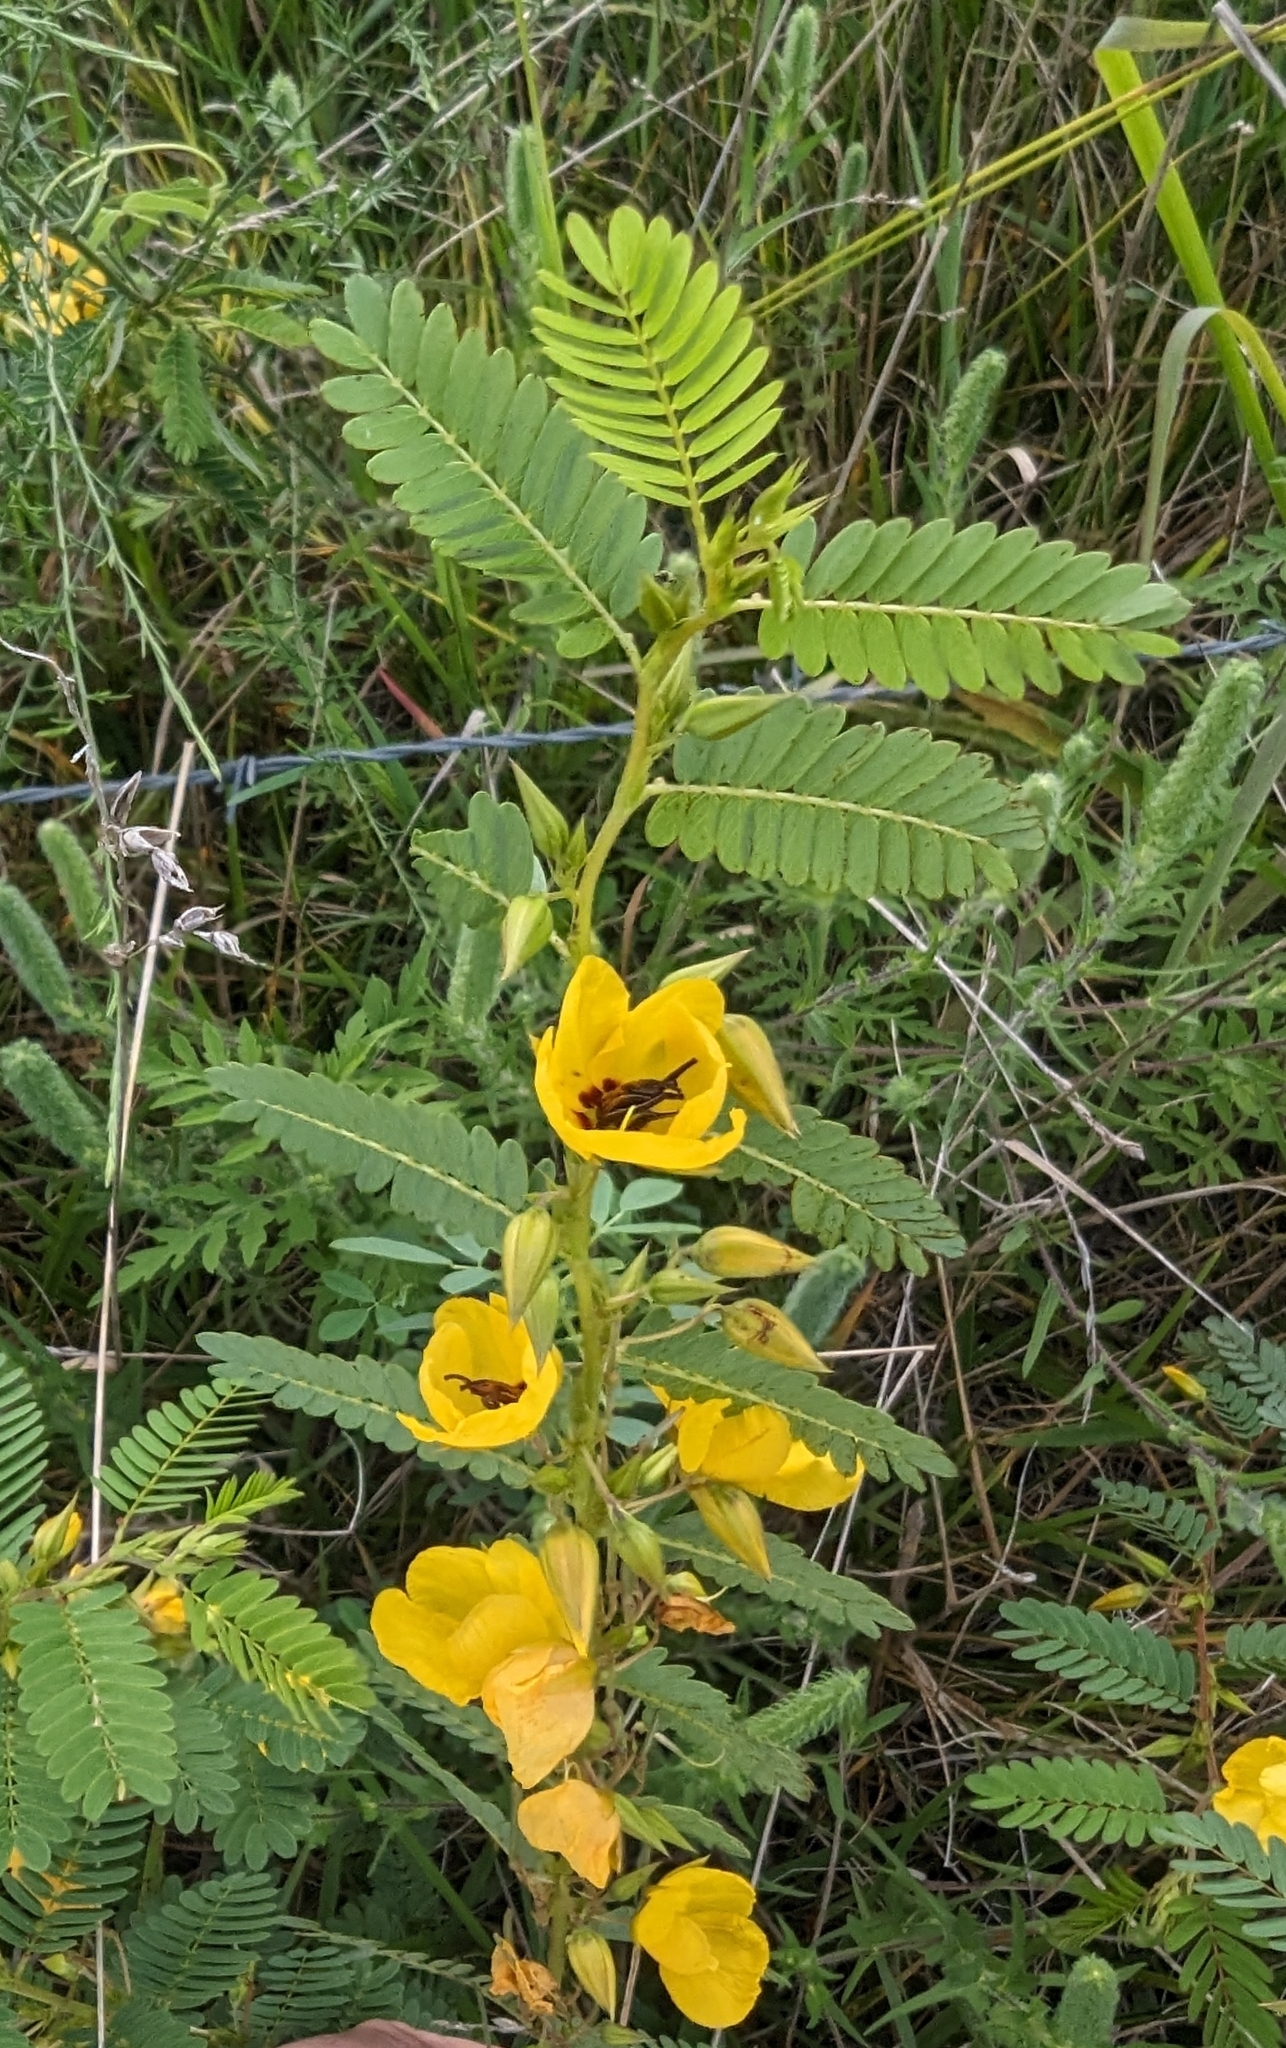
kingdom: Plantae
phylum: Tracheophyta
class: Magnoliopsida
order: Fabales
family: Fabaceae
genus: Chamaecrista
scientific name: Chamaecrista fasciculata
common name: Golden cassia
